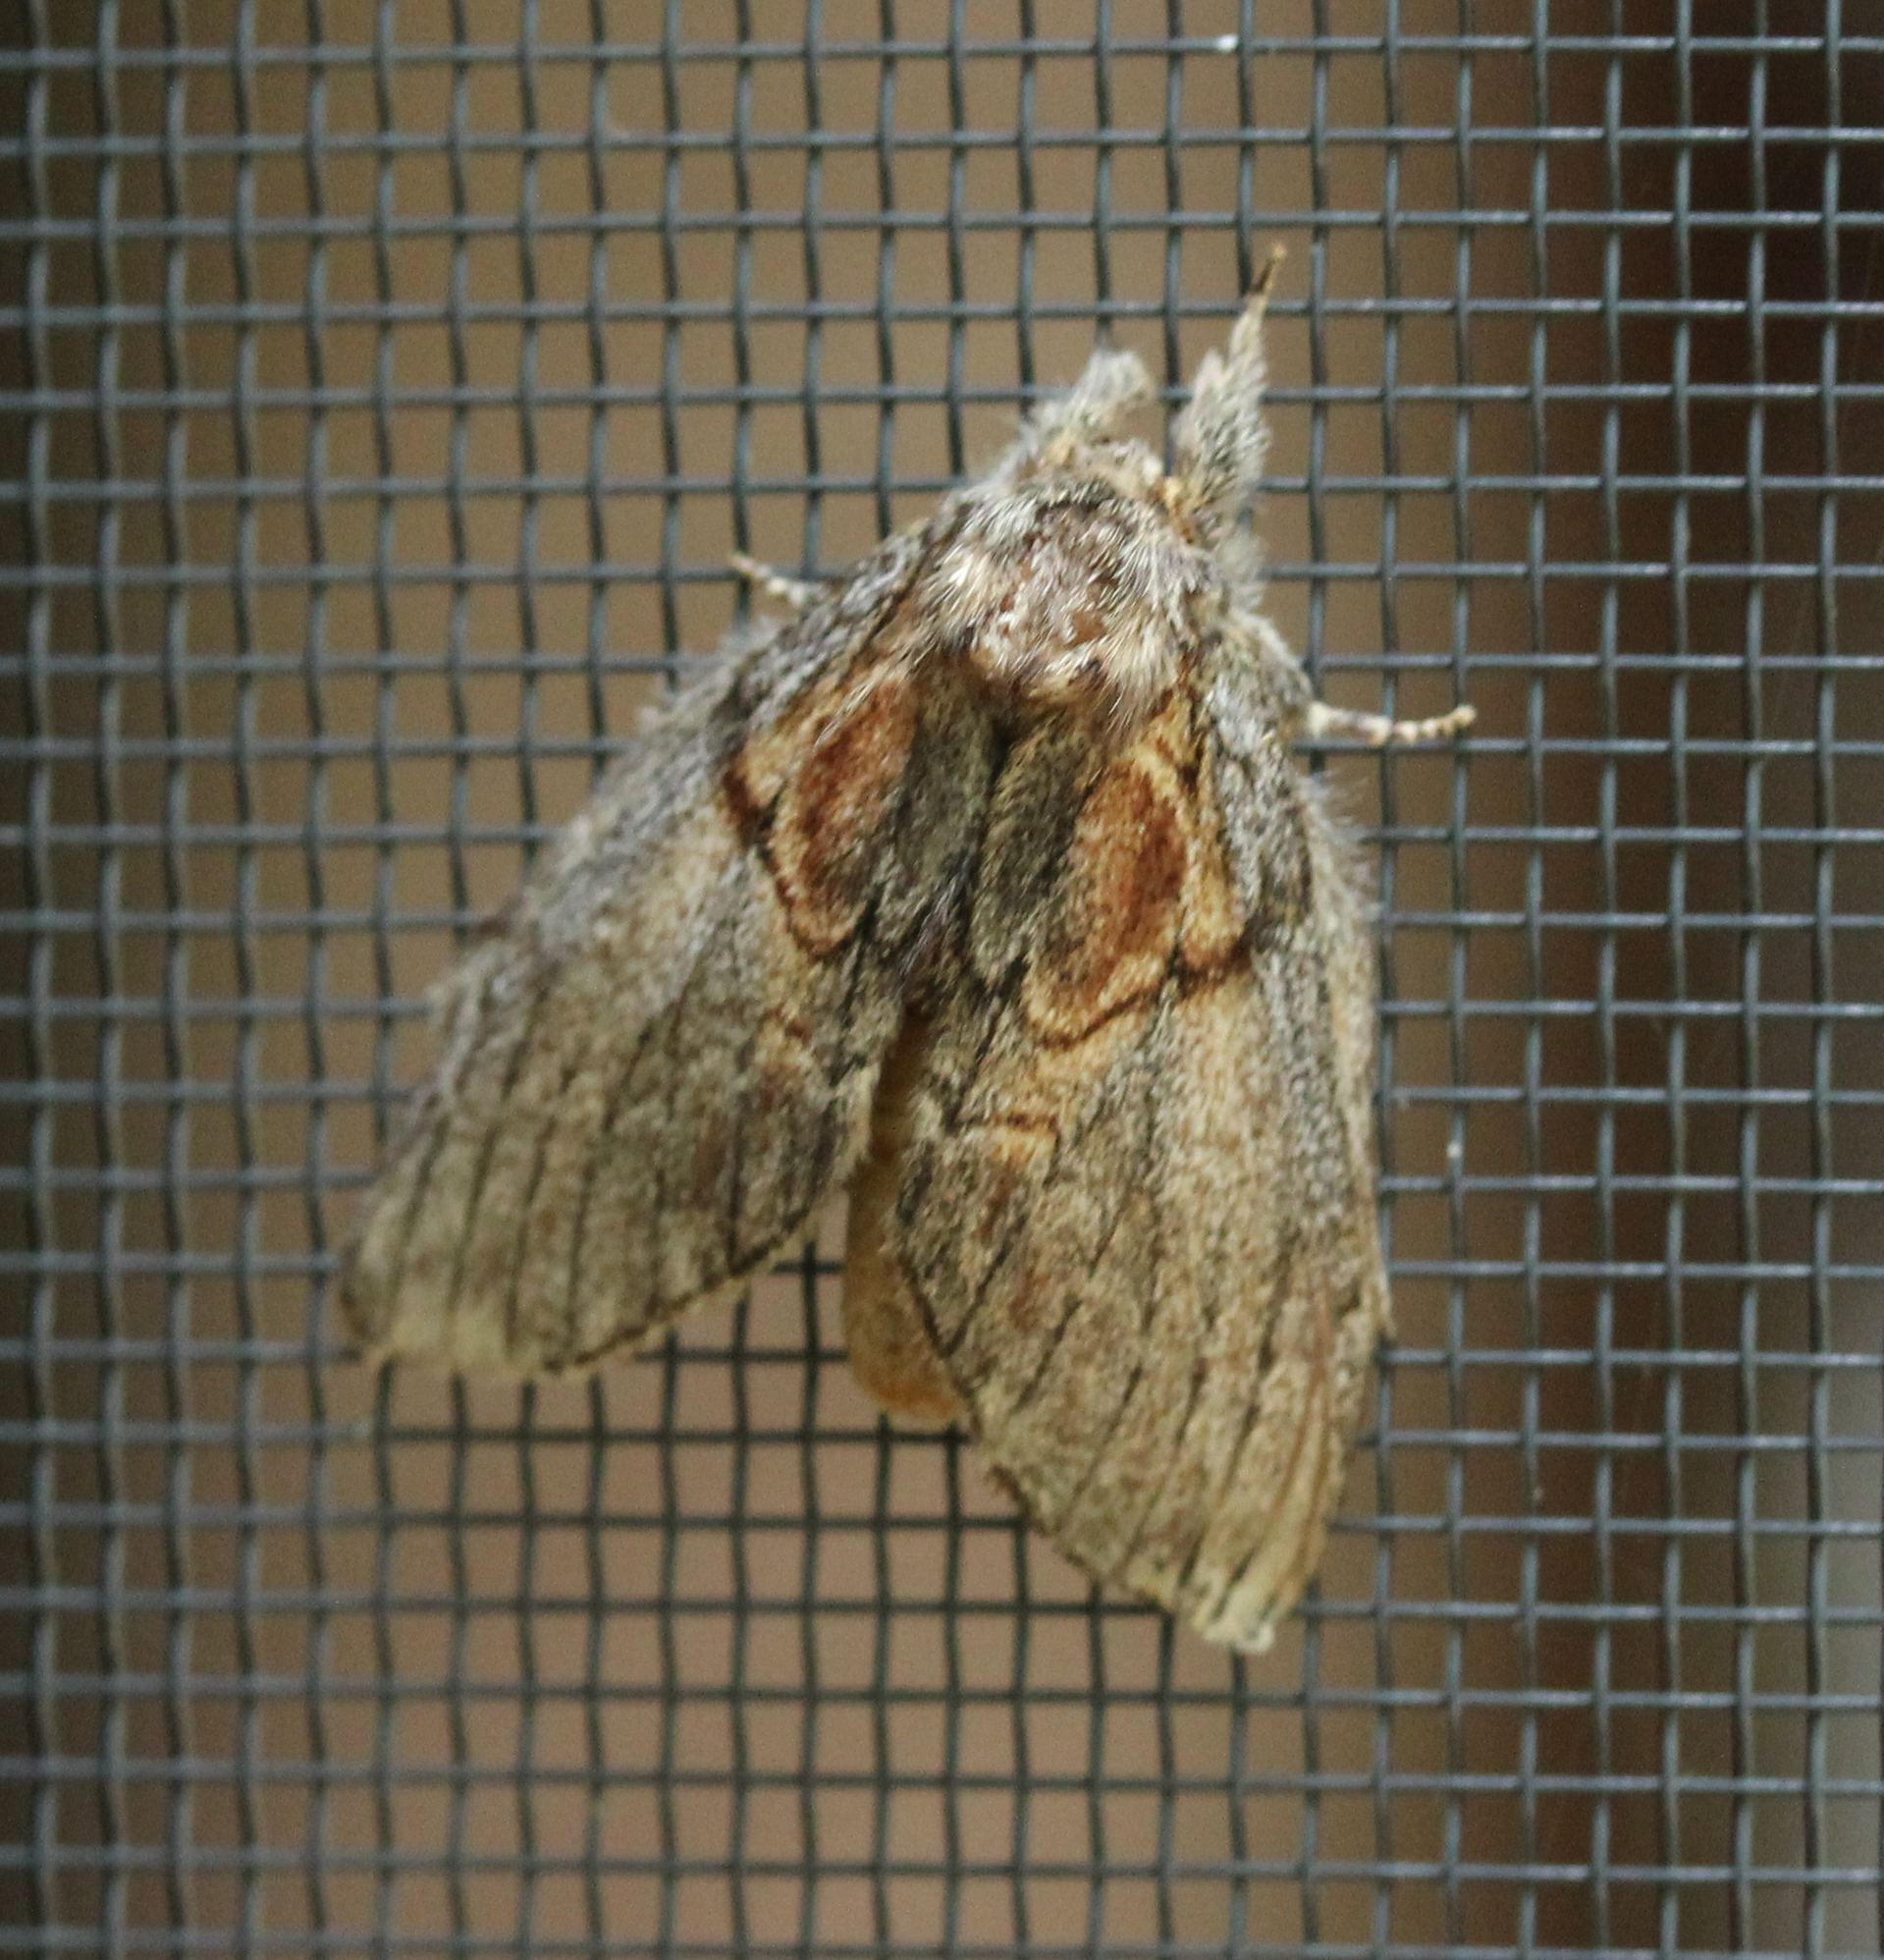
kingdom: Animalia
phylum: Arthropoda
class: Insecta
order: Lepidoptera
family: Notodontidae
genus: Peridea
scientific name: Peridea basitriens
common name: Oval-based prominent
